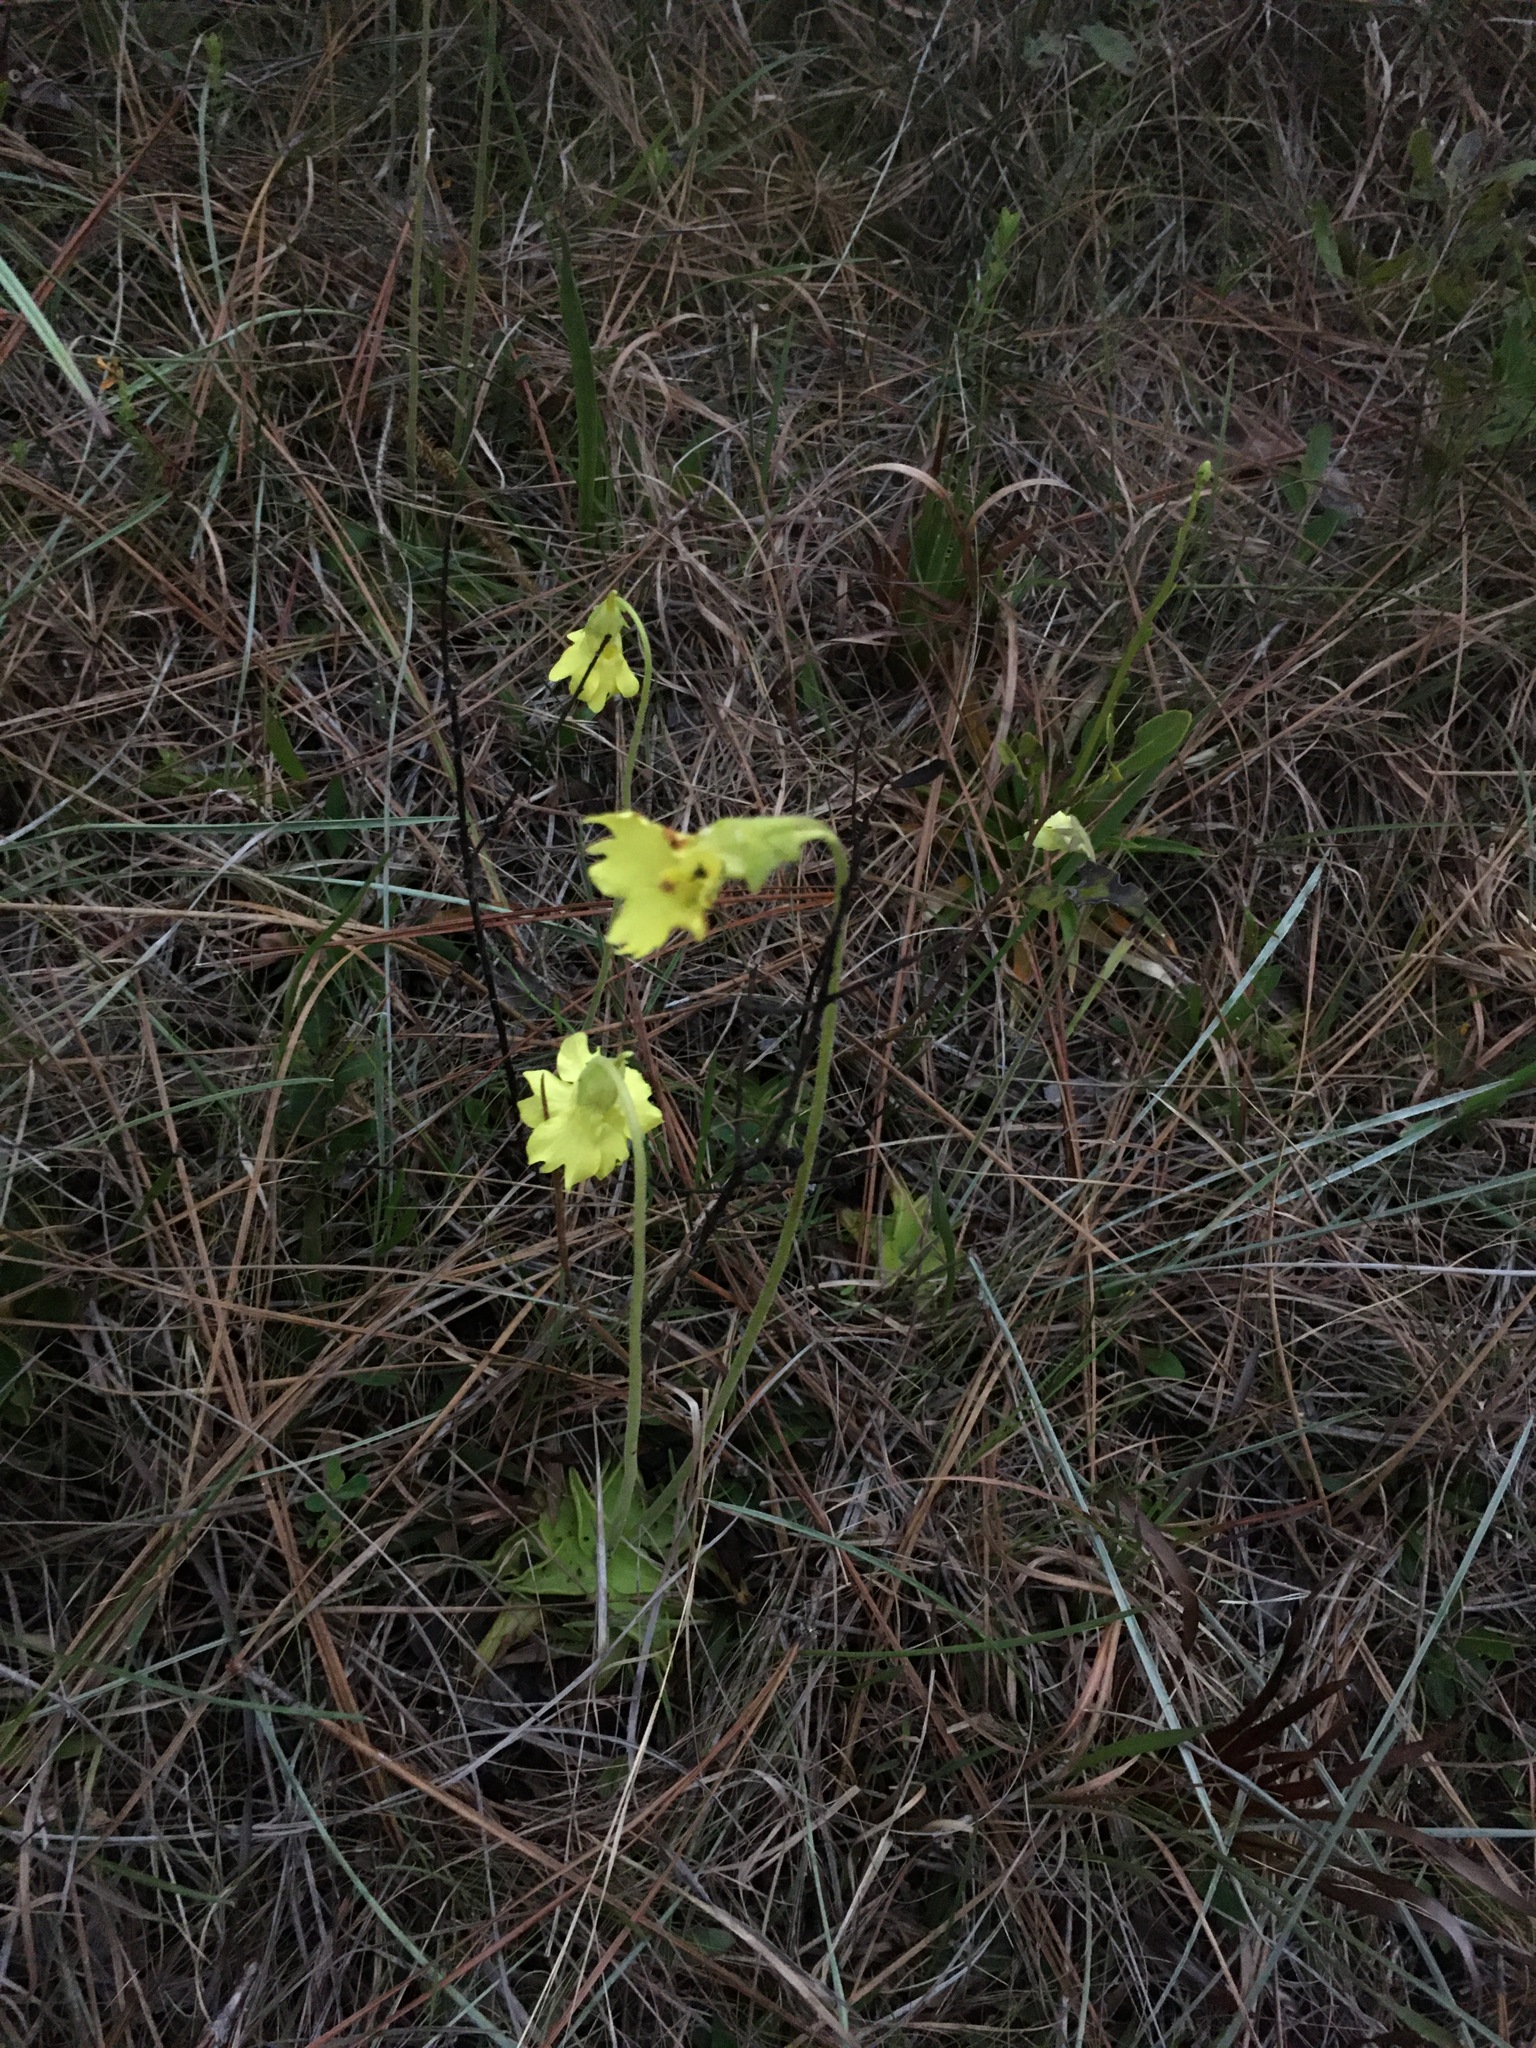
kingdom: Plantae
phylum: Tracheophyta
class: Magnoliopsida
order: Lamiales
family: Lentibulariaceae
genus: Pinguicula
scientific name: Pinguicula lutea
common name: Yellow butterwort
